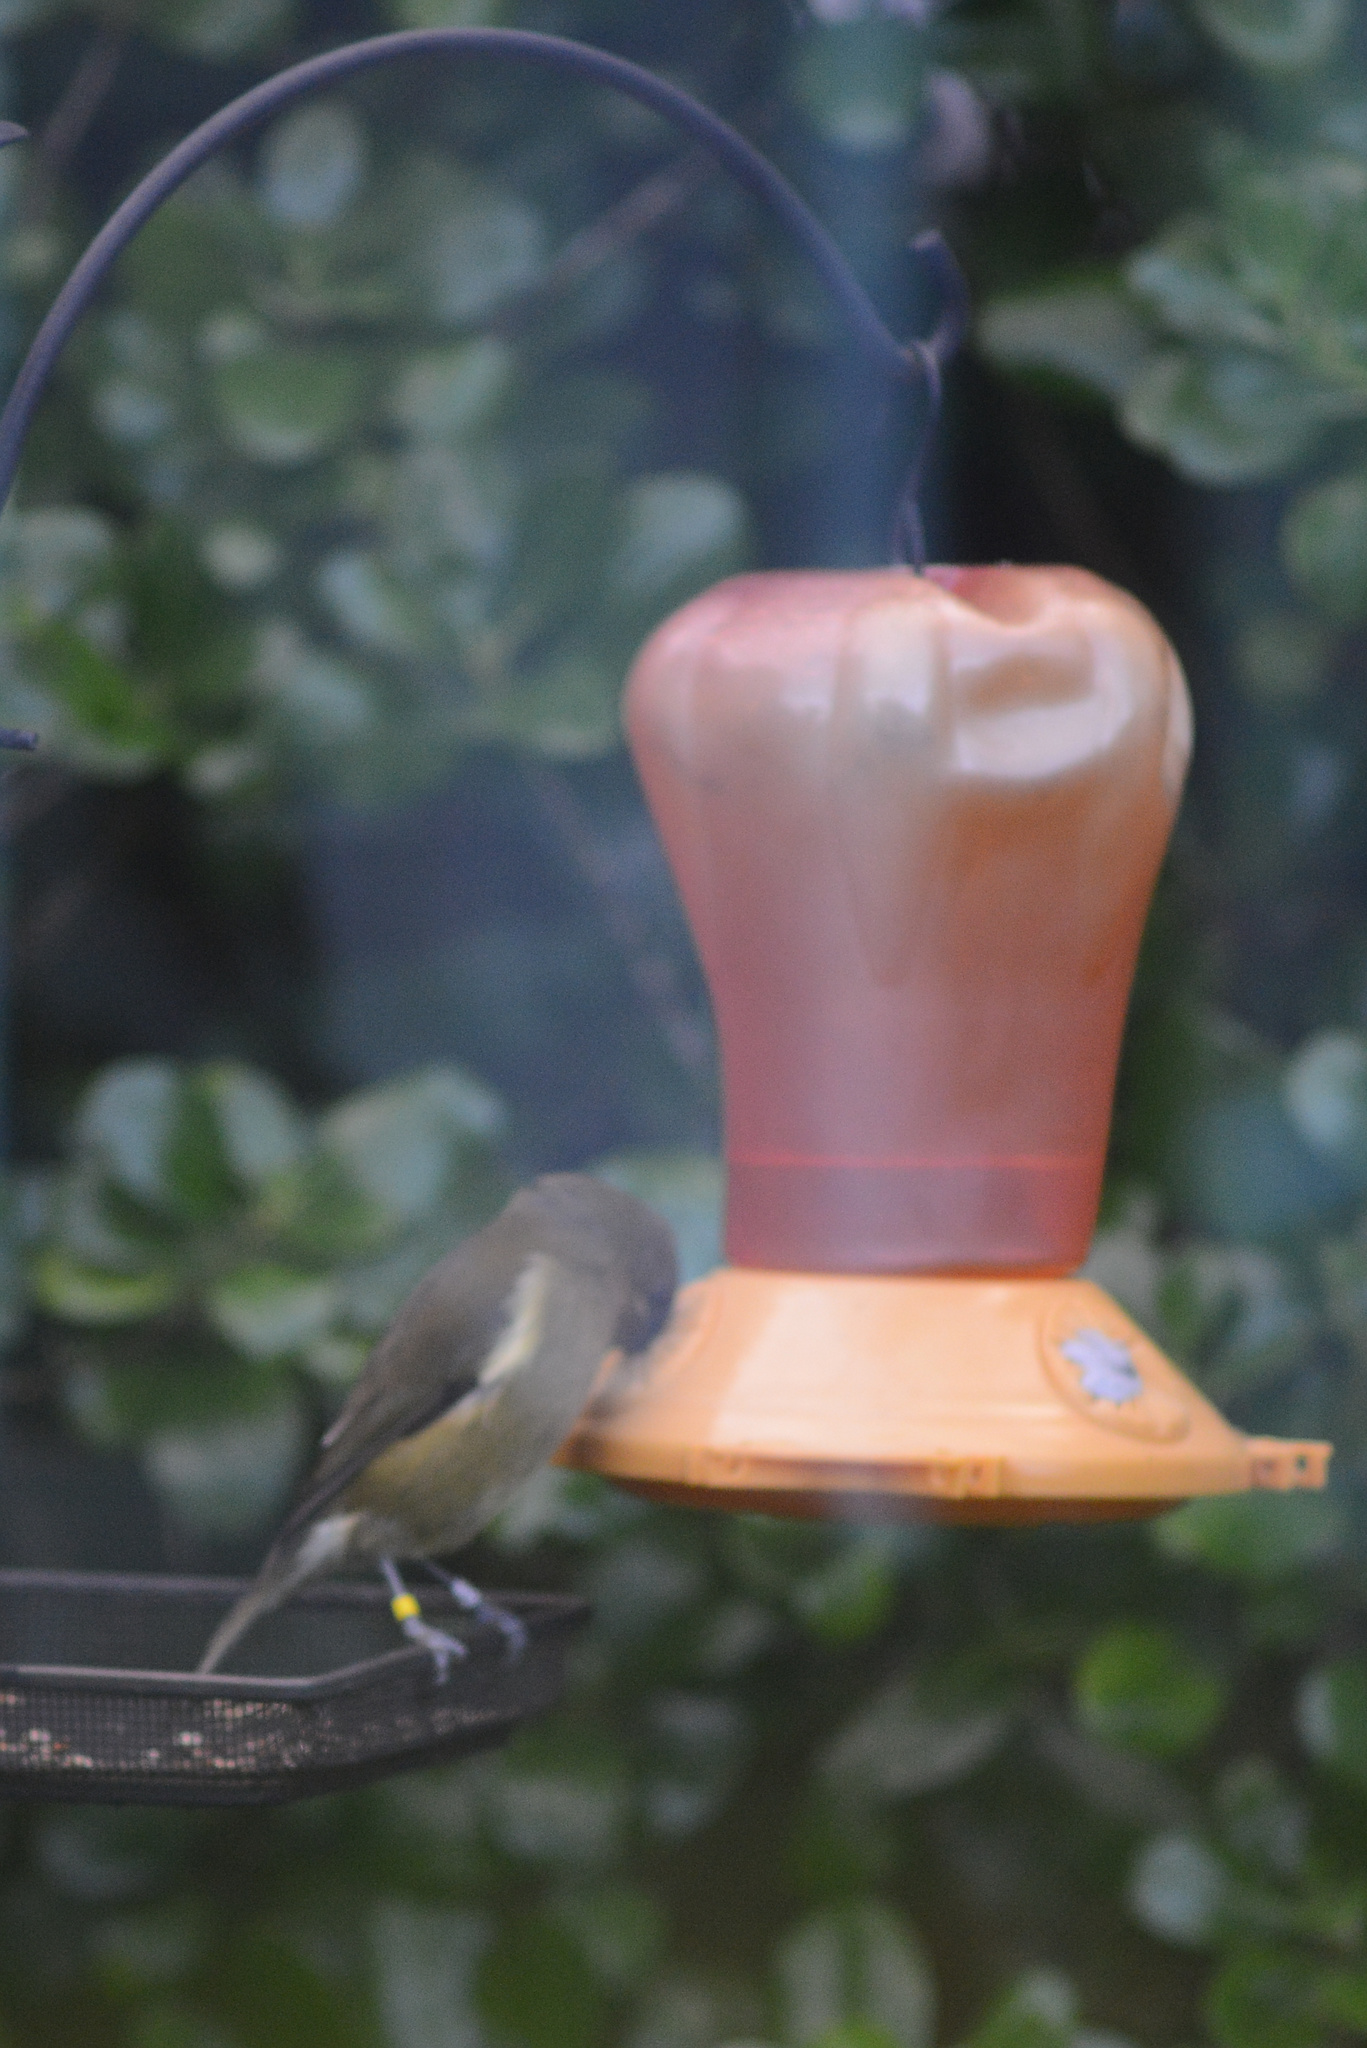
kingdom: Animalia
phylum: Chordata
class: Aves
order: Passeriformes
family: Meliphagidae
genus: Anthornis
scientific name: Anthornis melanura
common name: New zealand bellbird
